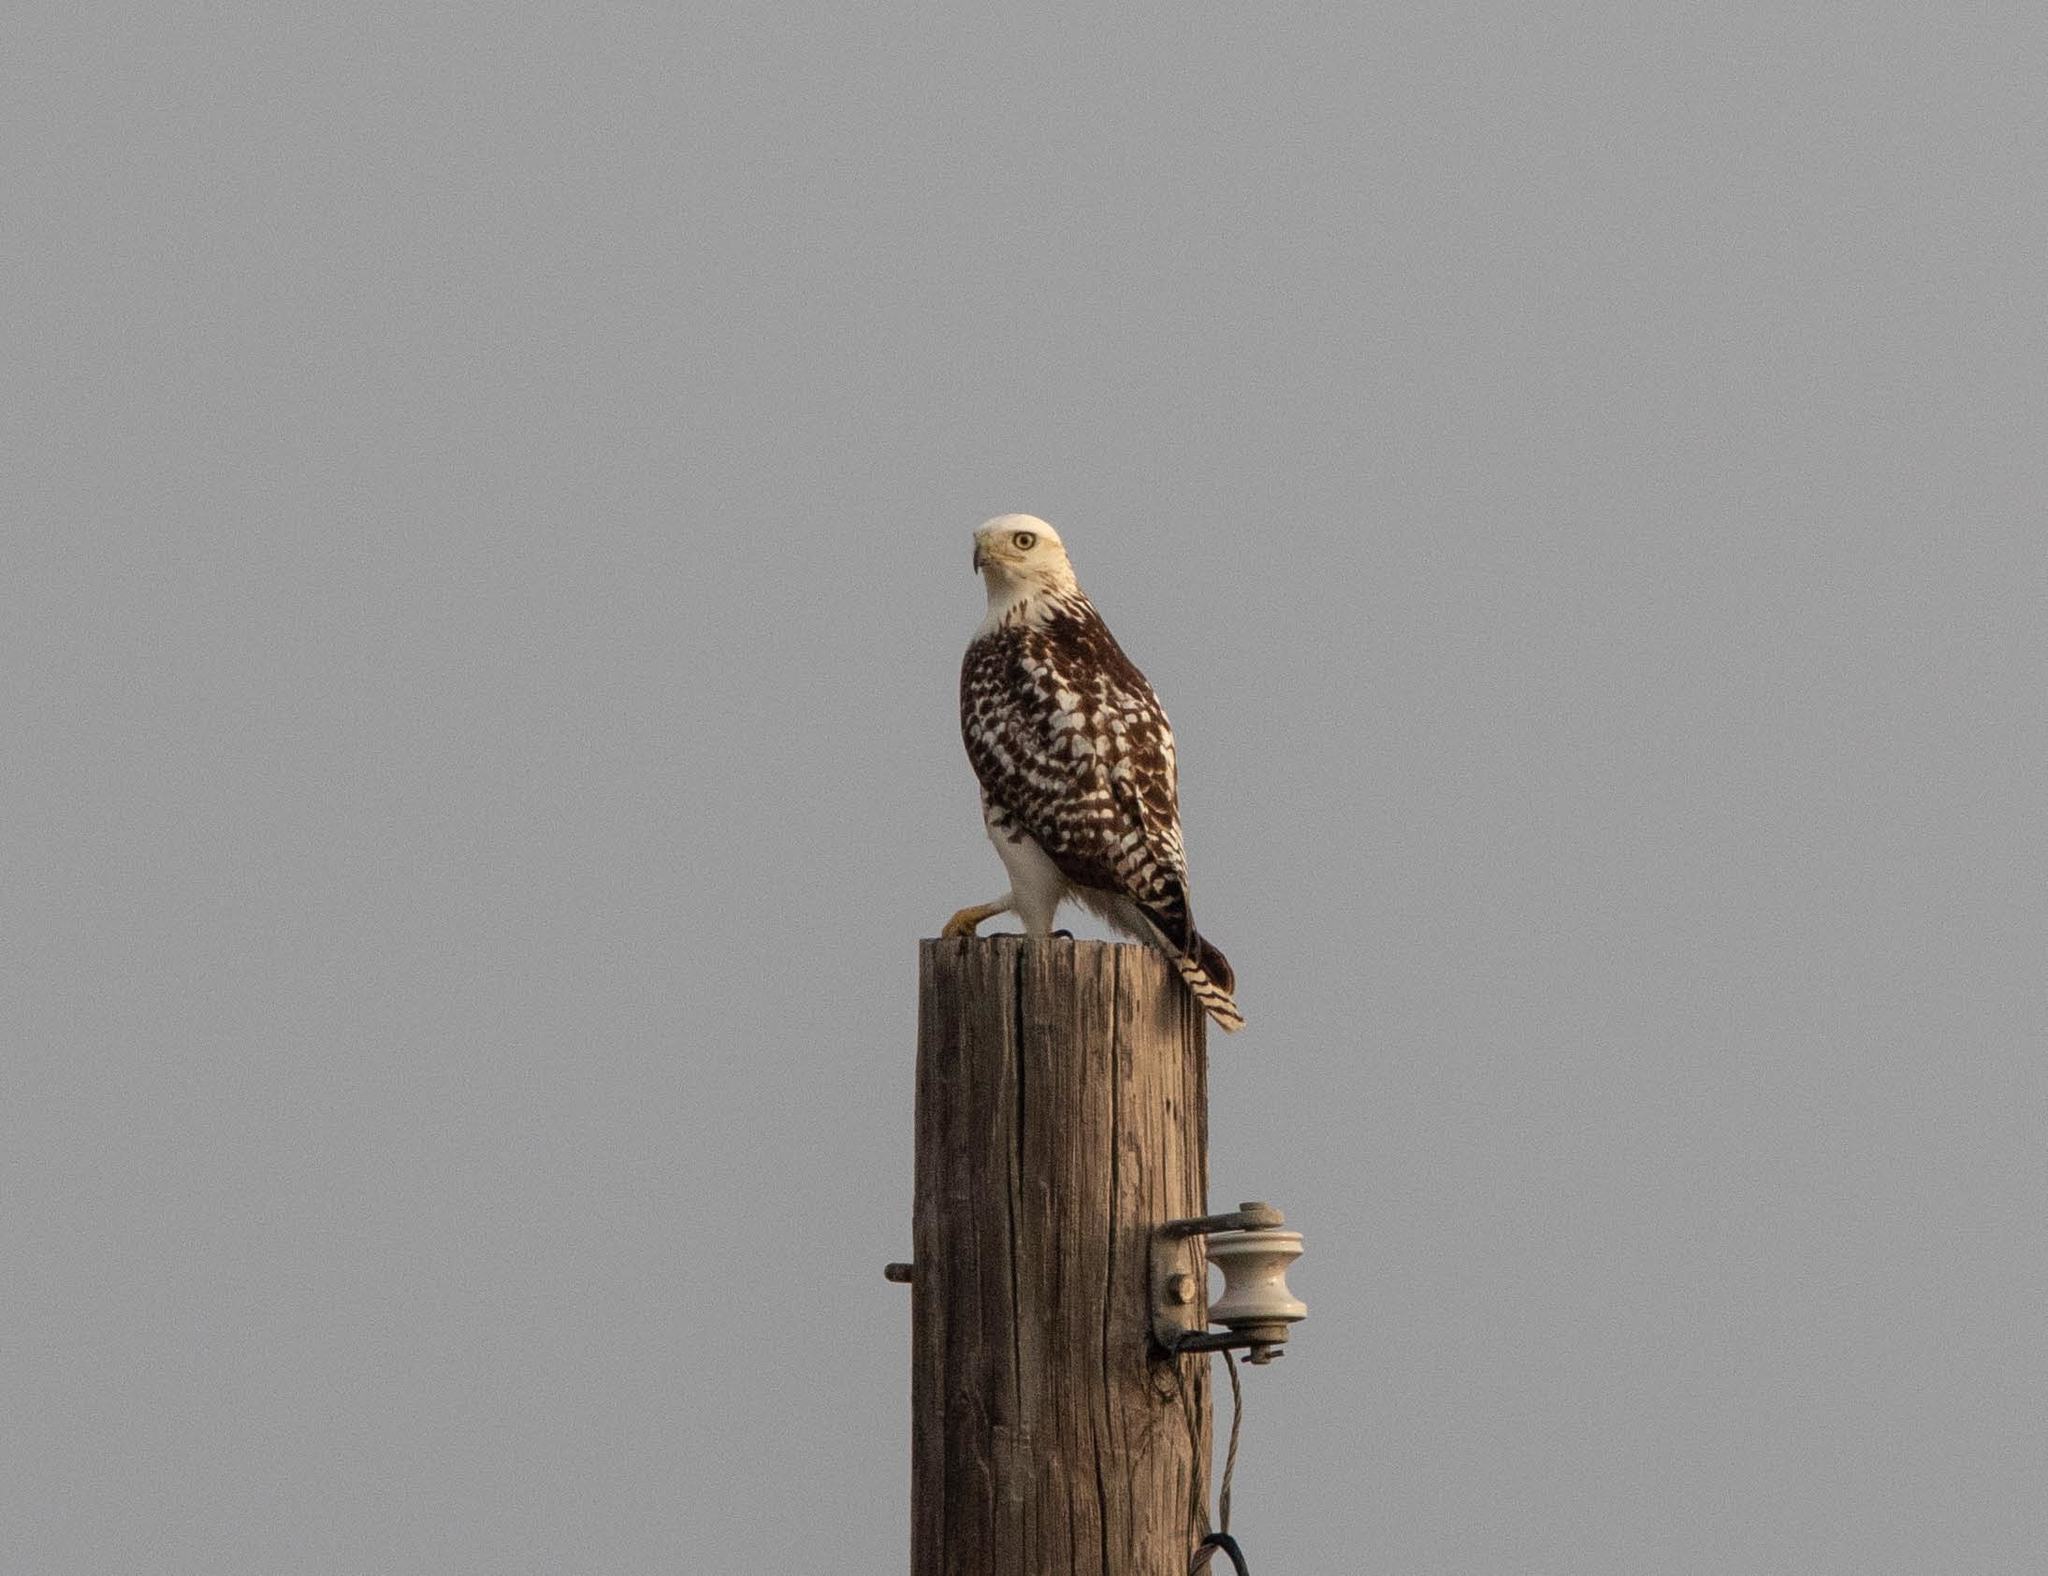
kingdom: Animalia
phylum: Chordata
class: Aves
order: Accipitriformes
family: Accipitridae
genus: Buteo
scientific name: Buteo jamaicensis
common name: Red-tailed hawk
